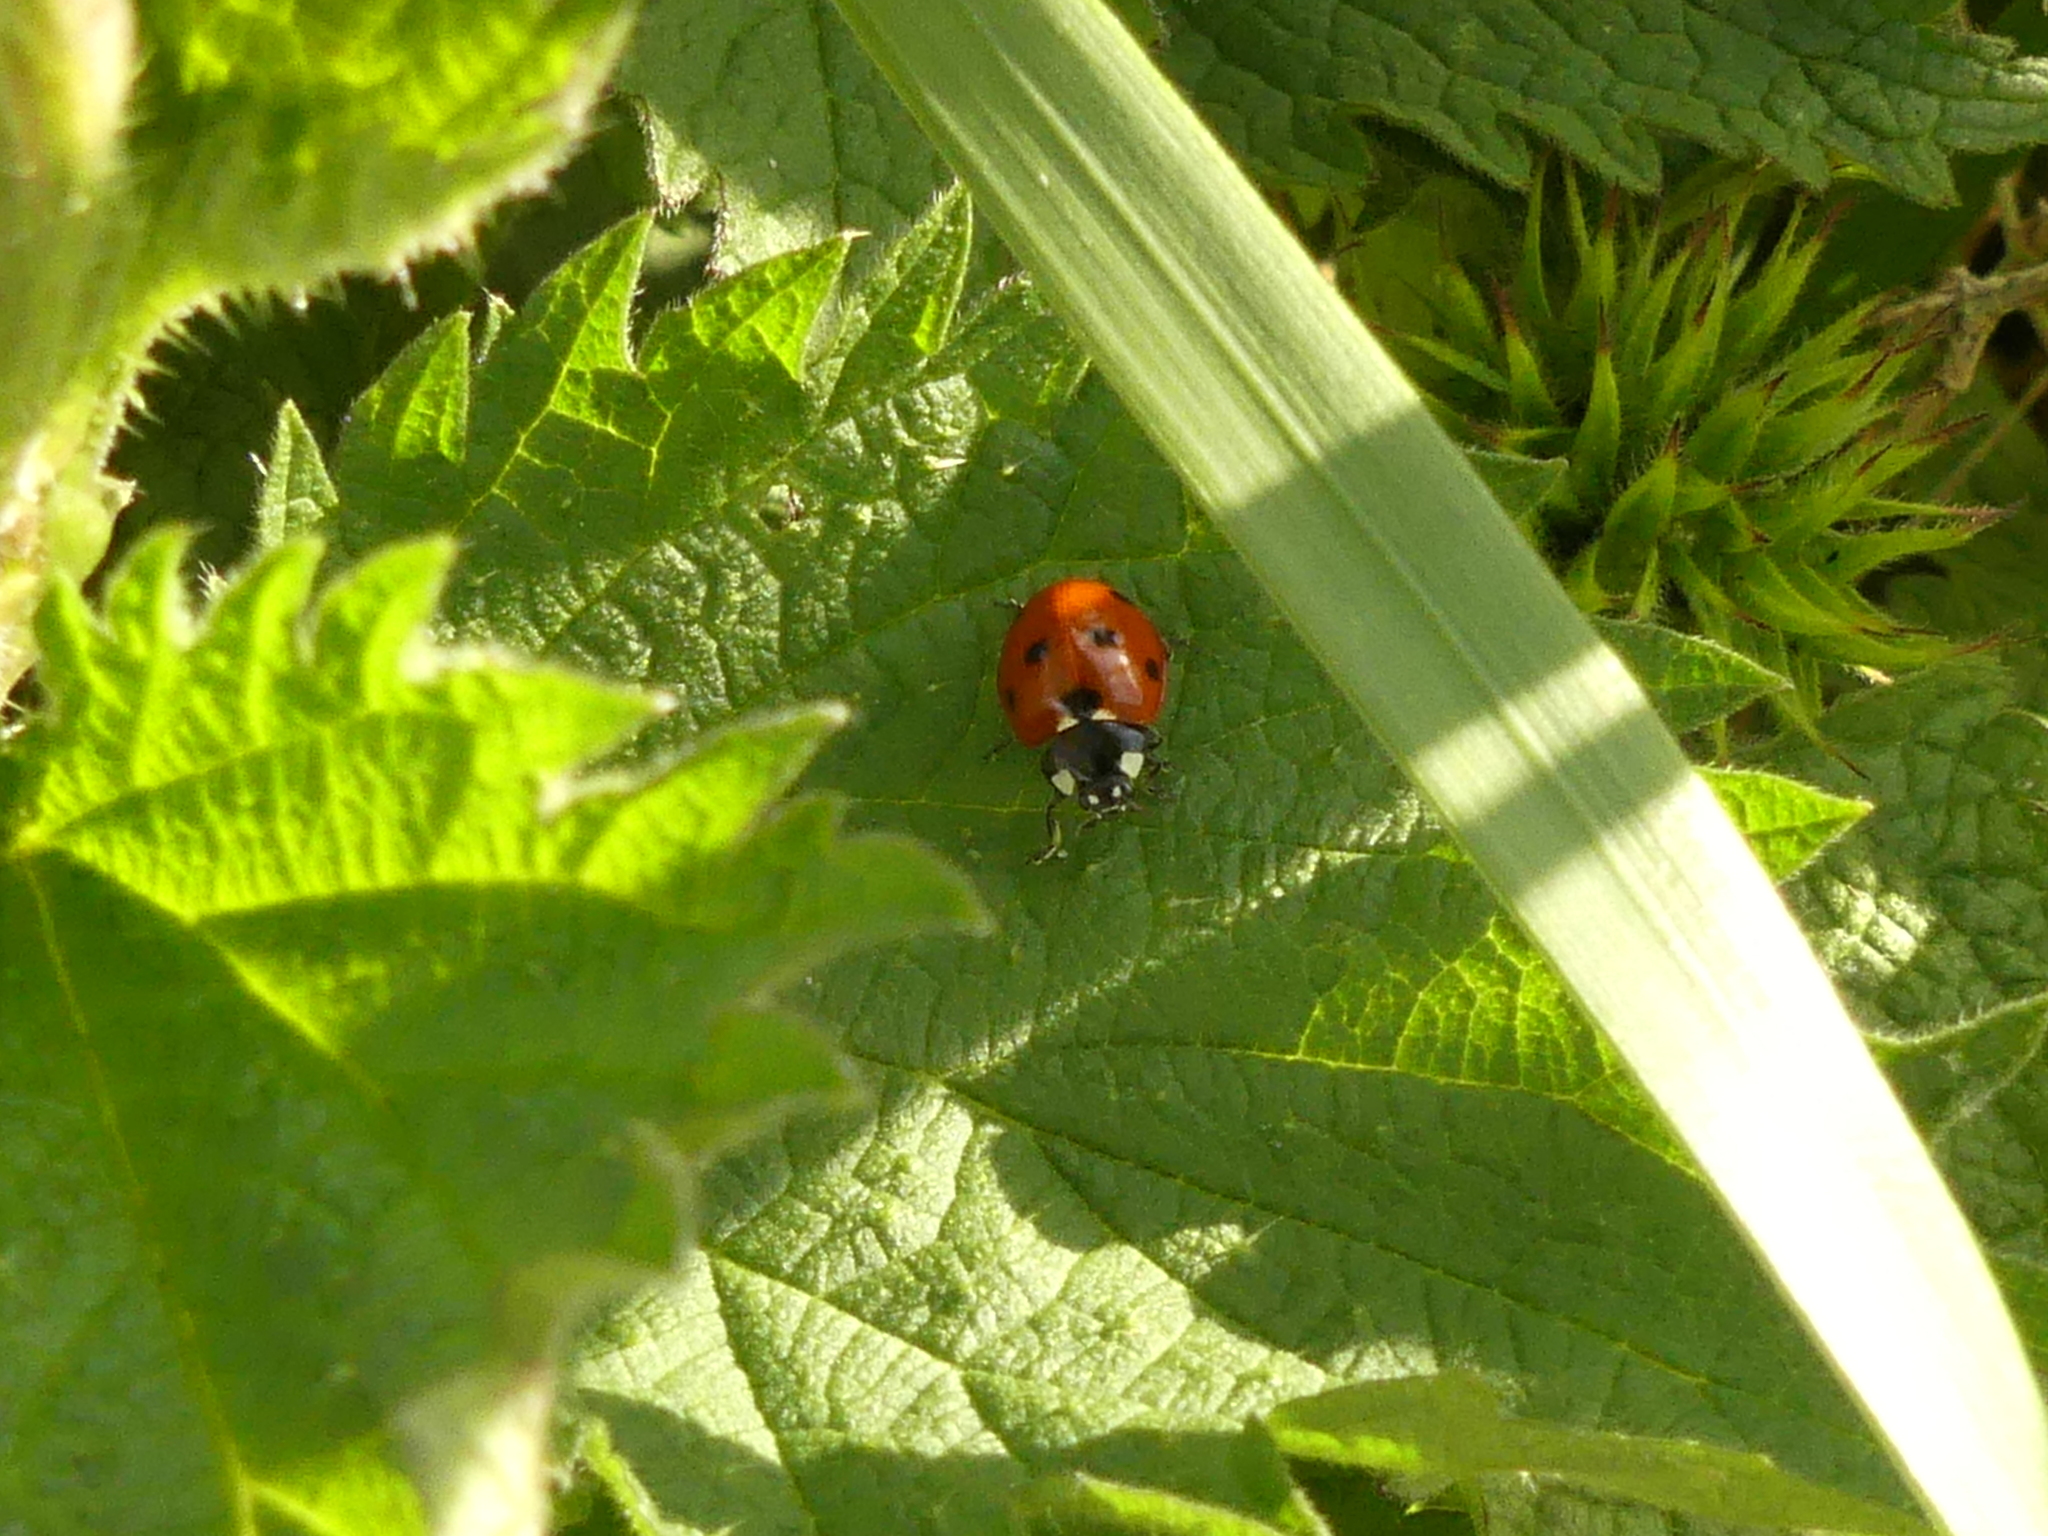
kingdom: Animalia
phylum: Arthropoda
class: Insecta
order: Coleoptera
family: Coccinellidae
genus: Coccinella
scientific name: Coccinella septempunctata
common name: Sevenspotted lady beetle
